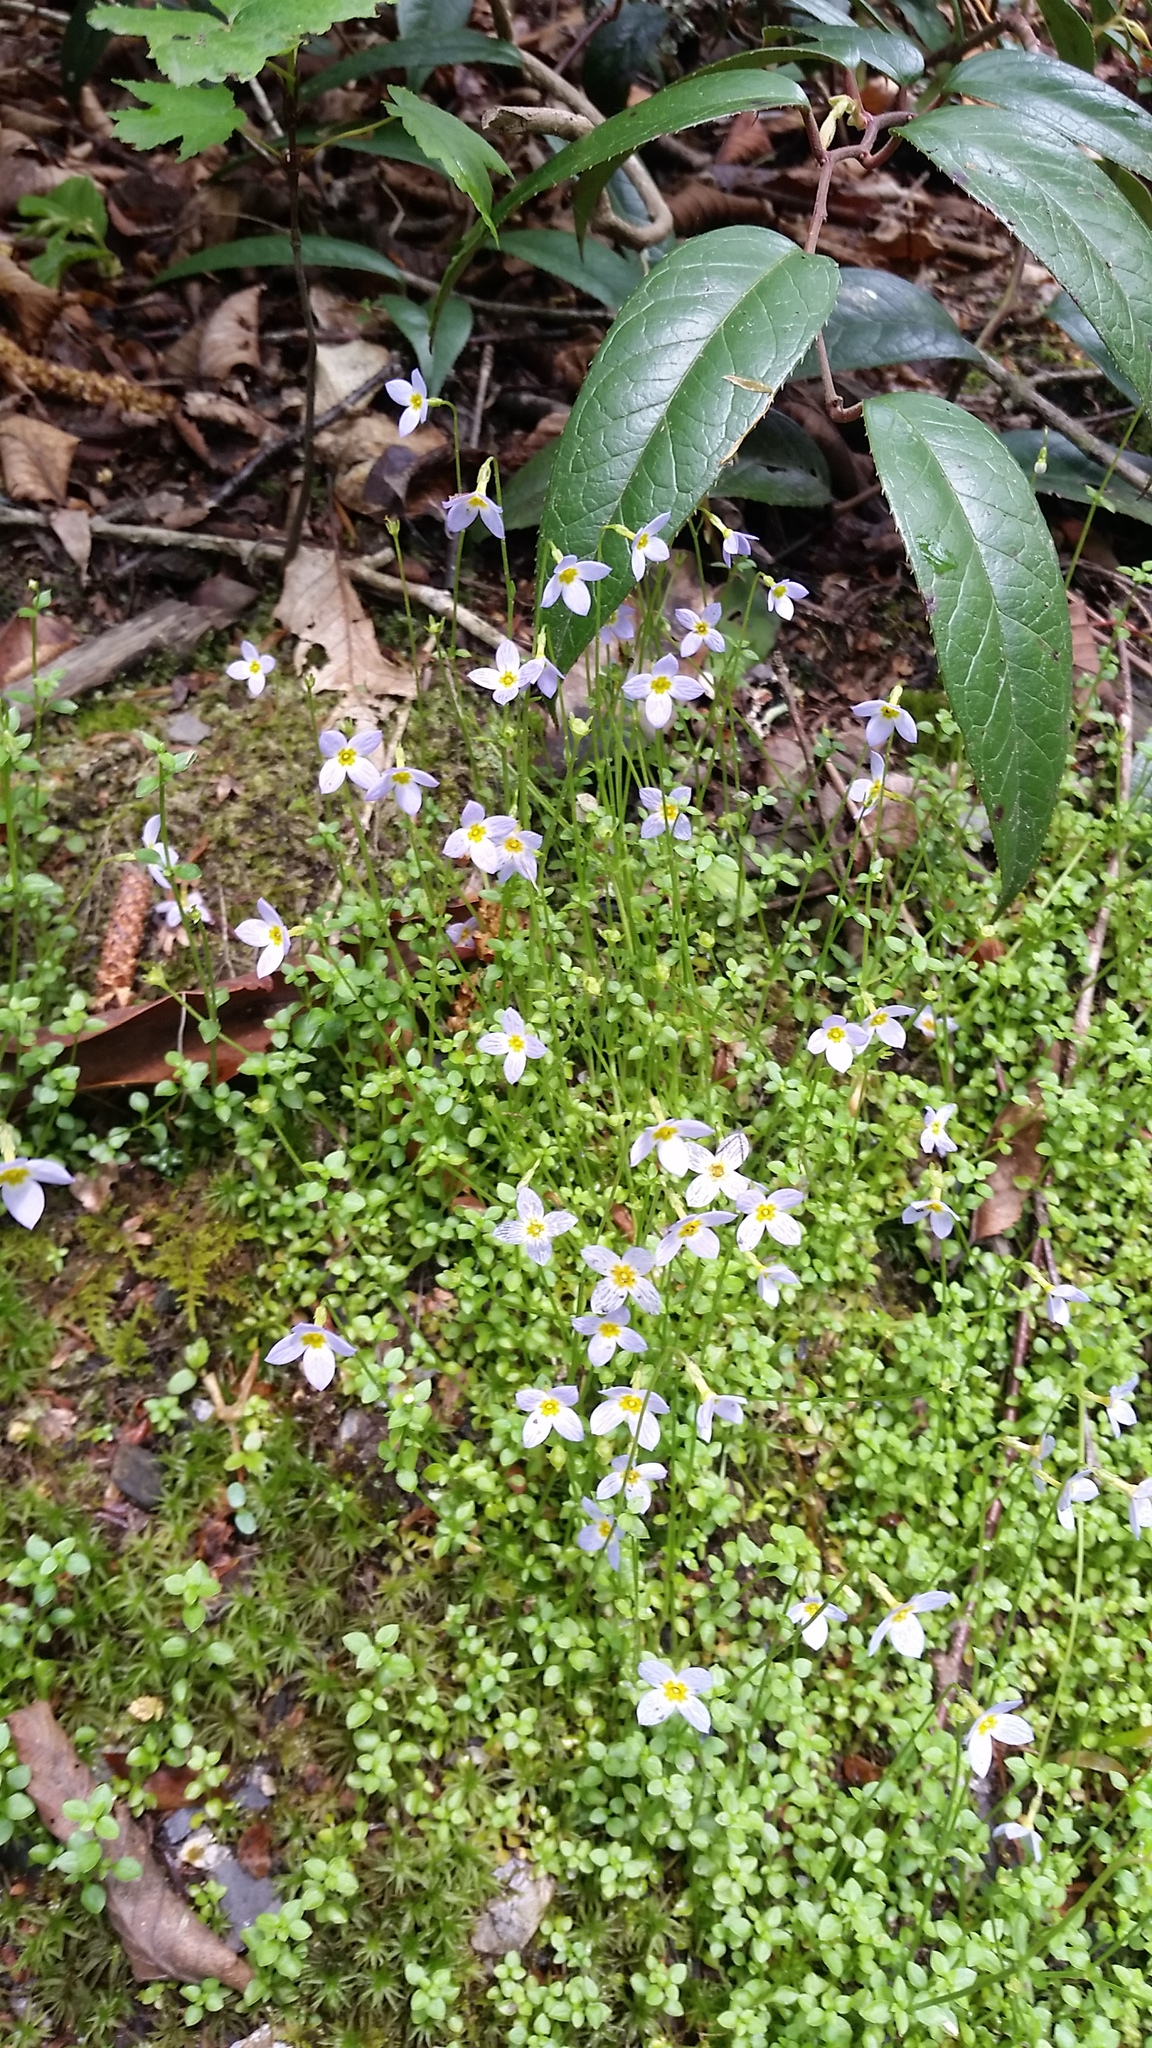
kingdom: Plantae
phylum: Tracheophyta
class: Magnoliopsida
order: Gentianales
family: Rubiaceae
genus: Houstonia
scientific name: Houstonia serpyllifolia
